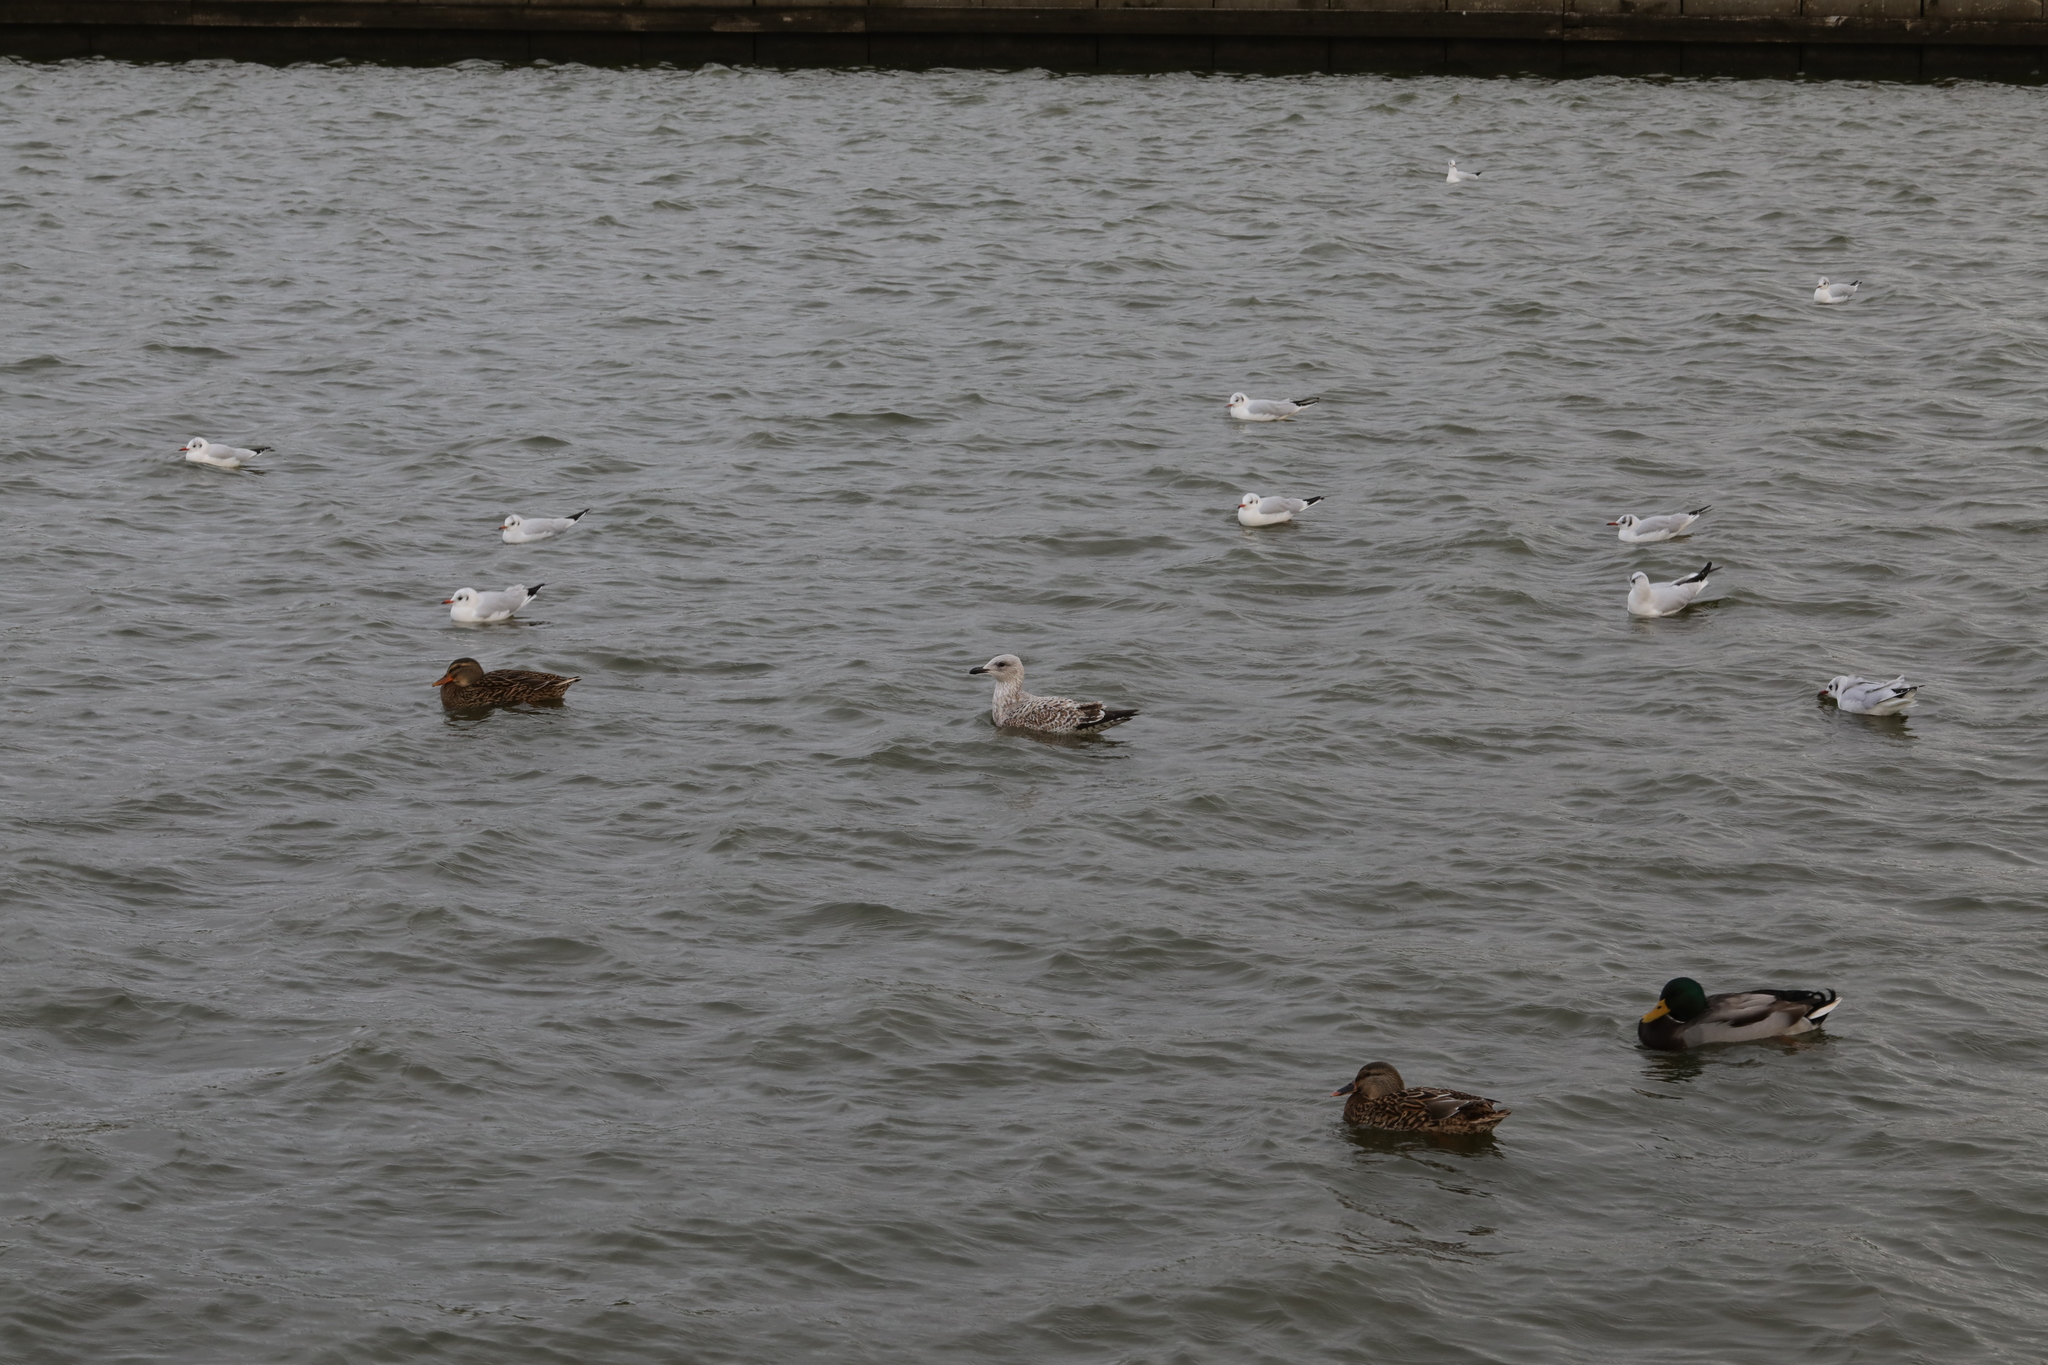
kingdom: Animalia
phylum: Chordata
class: Aves
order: Charadriiformes
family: Laridae
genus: Larus
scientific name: Larus argentatus
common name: Herring gull
